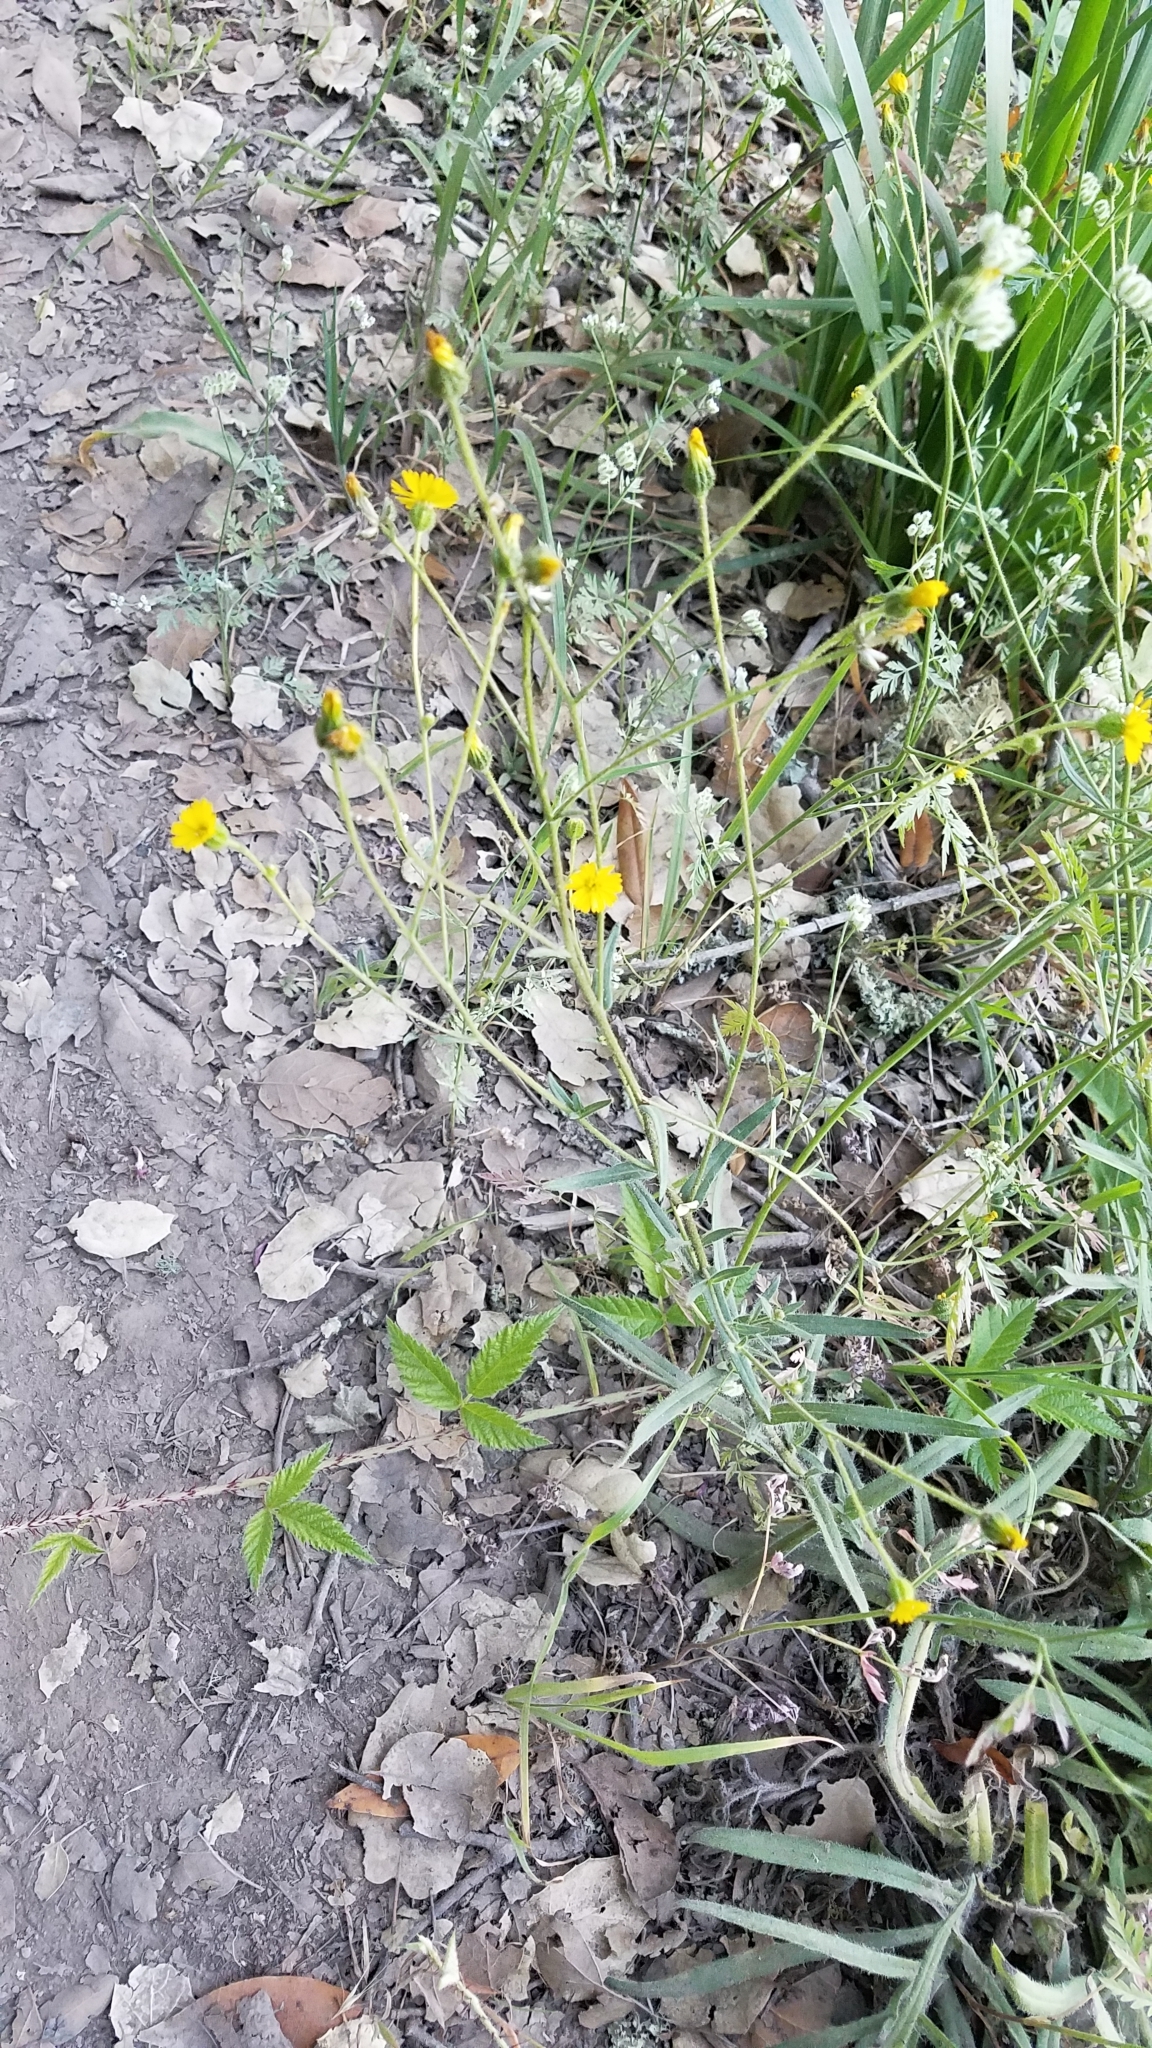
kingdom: Plantae
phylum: Tracheophyta
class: Magnoliopsida
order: Asterales
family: Asteraceae
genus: Anisocarpus
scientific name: Anisocarpus madioides
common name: Woodland madia
